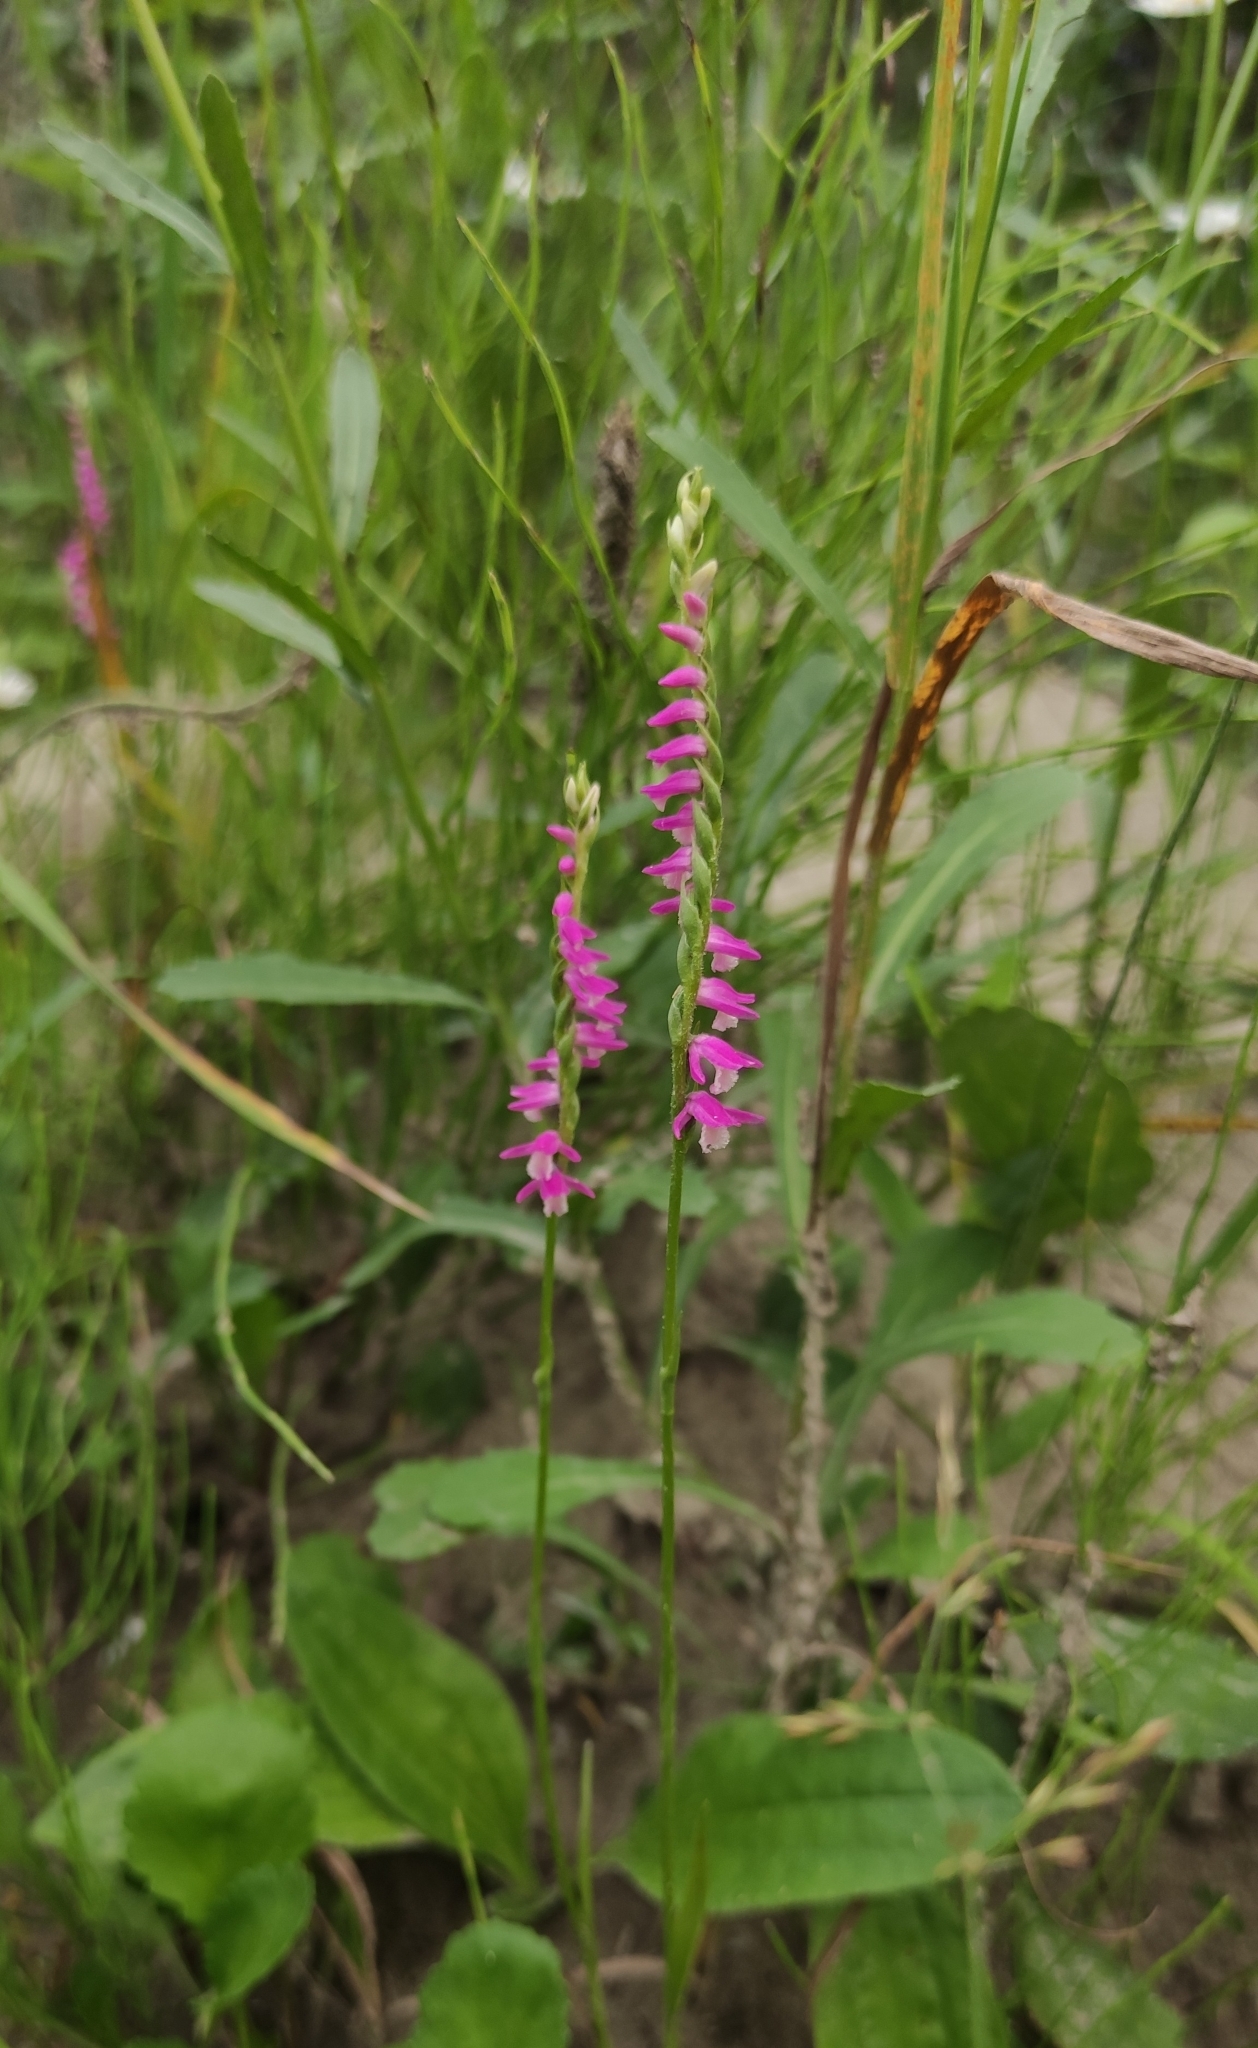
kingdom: Plantae
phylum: Tracheophyta
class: Liliopsida
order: Asparagales
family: Orchidaceae
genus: Spiranthes
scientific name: Spiranthes australis
